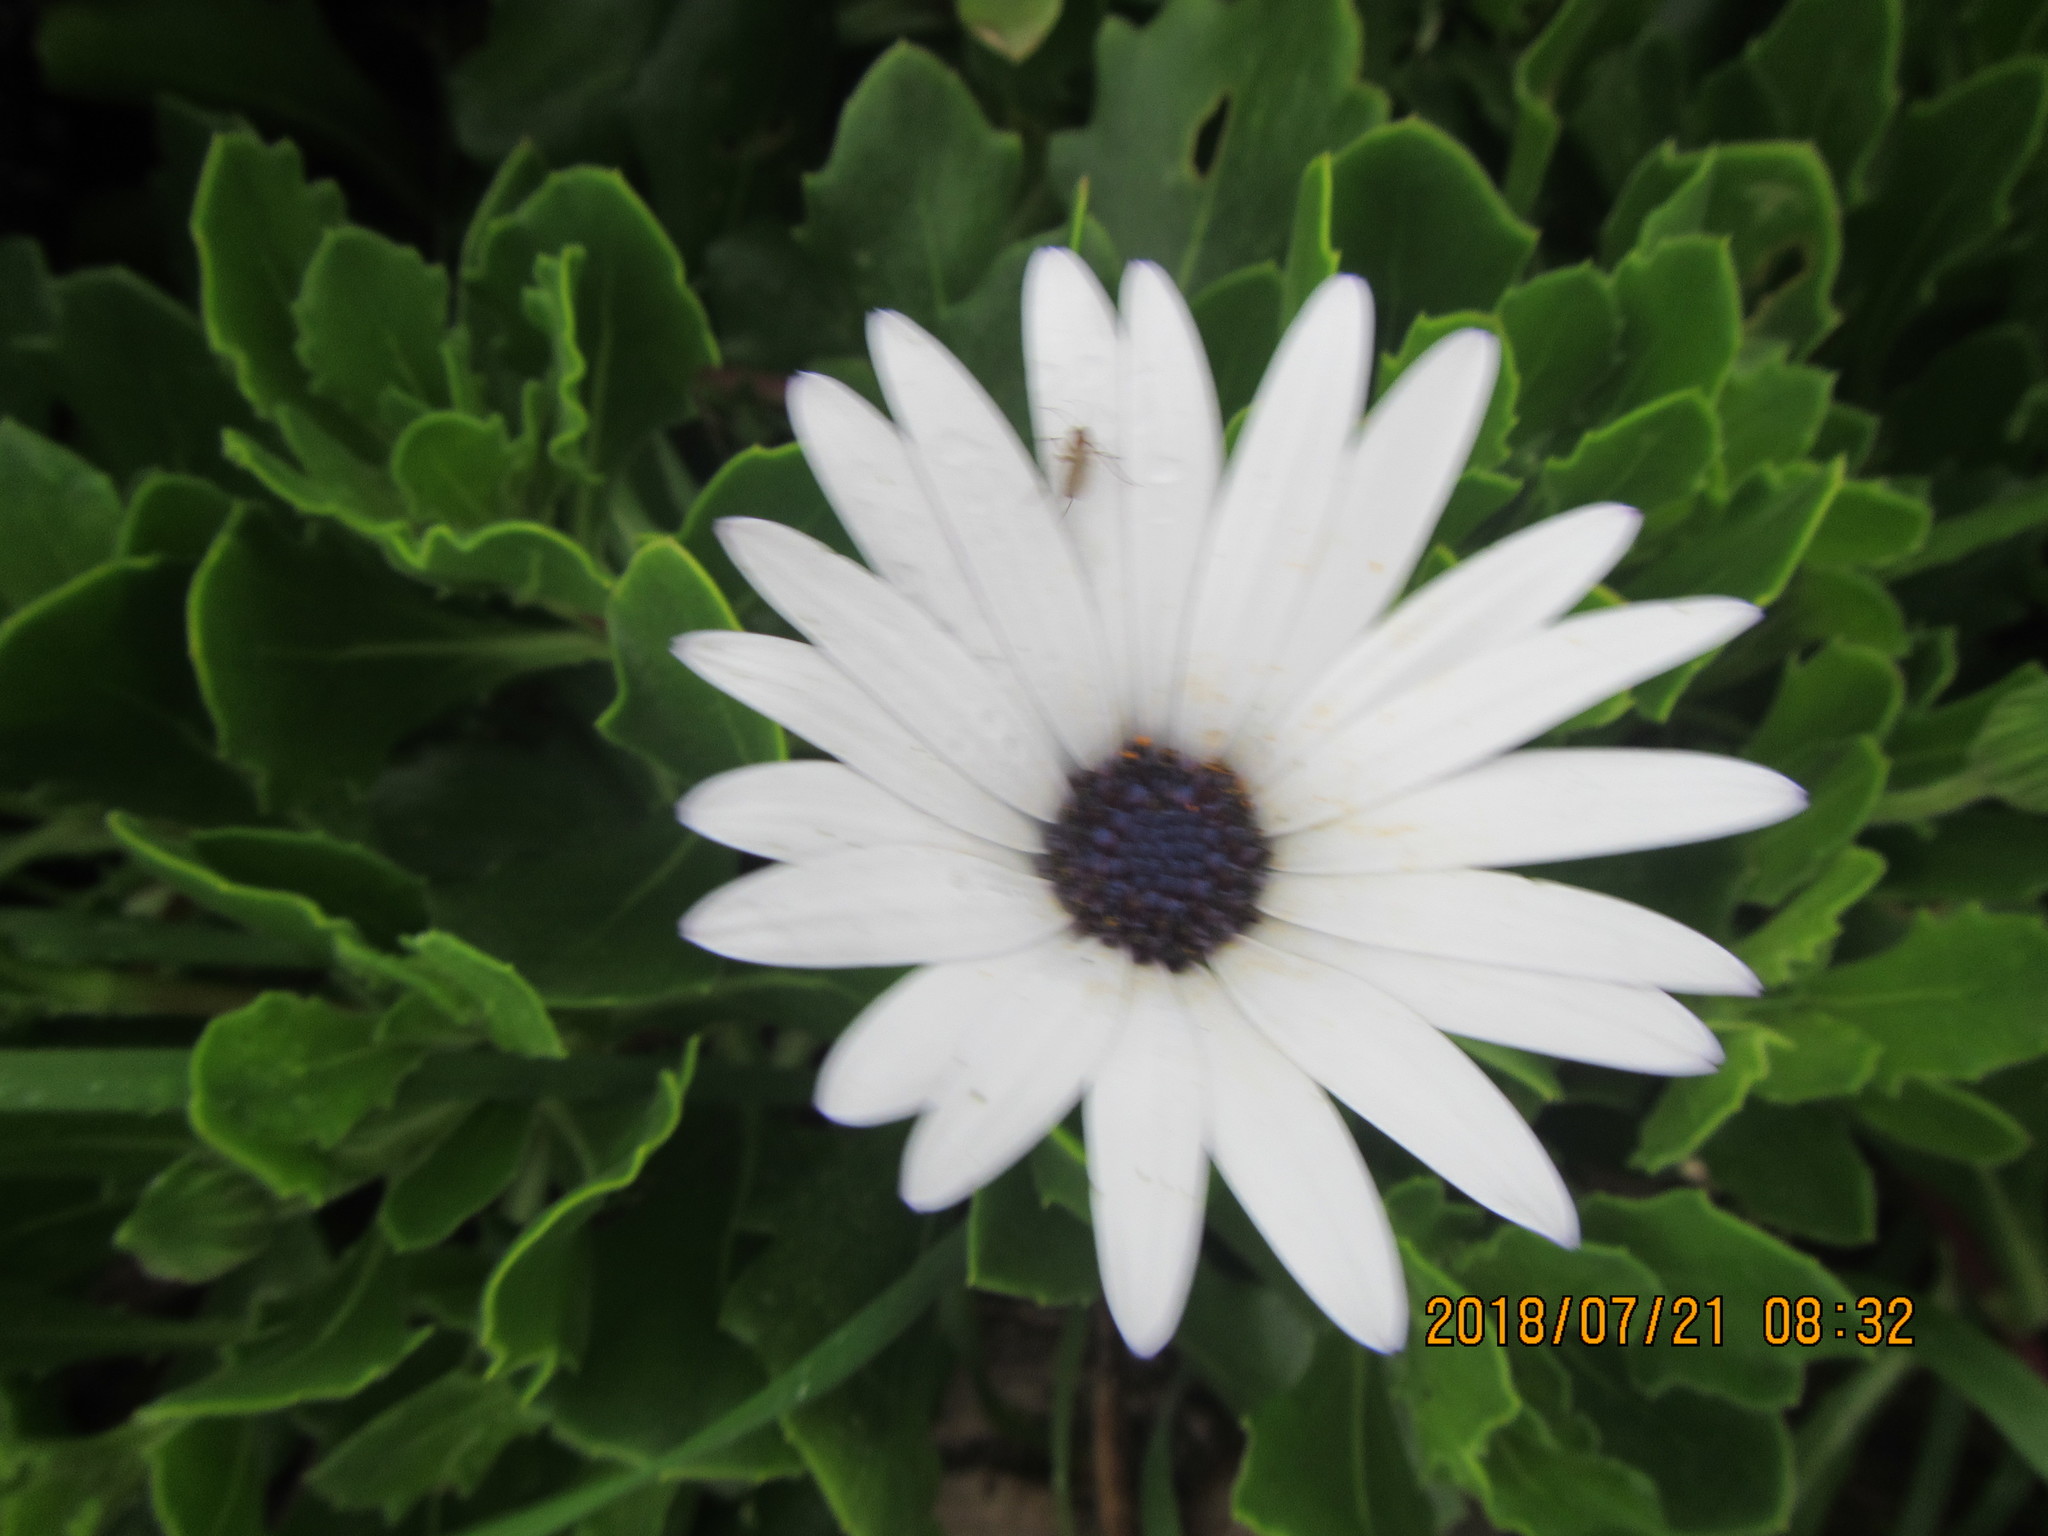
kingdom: Plantae
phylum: Tracheophyta
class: Magnoliopsida
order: Asterales
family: Asteraceae
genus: Dimorphotheca
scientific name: Dimorphotheca fruticosa
